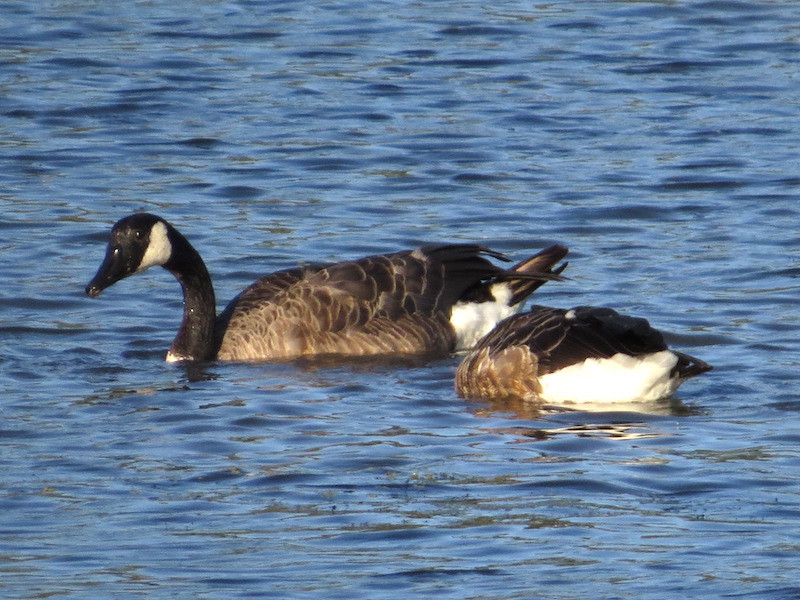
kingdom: Animalia
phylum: Chordata
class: Aves
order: Anseriformes
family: Anatidae
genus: Branta
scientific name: Branta canadensis
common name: Canada goose
